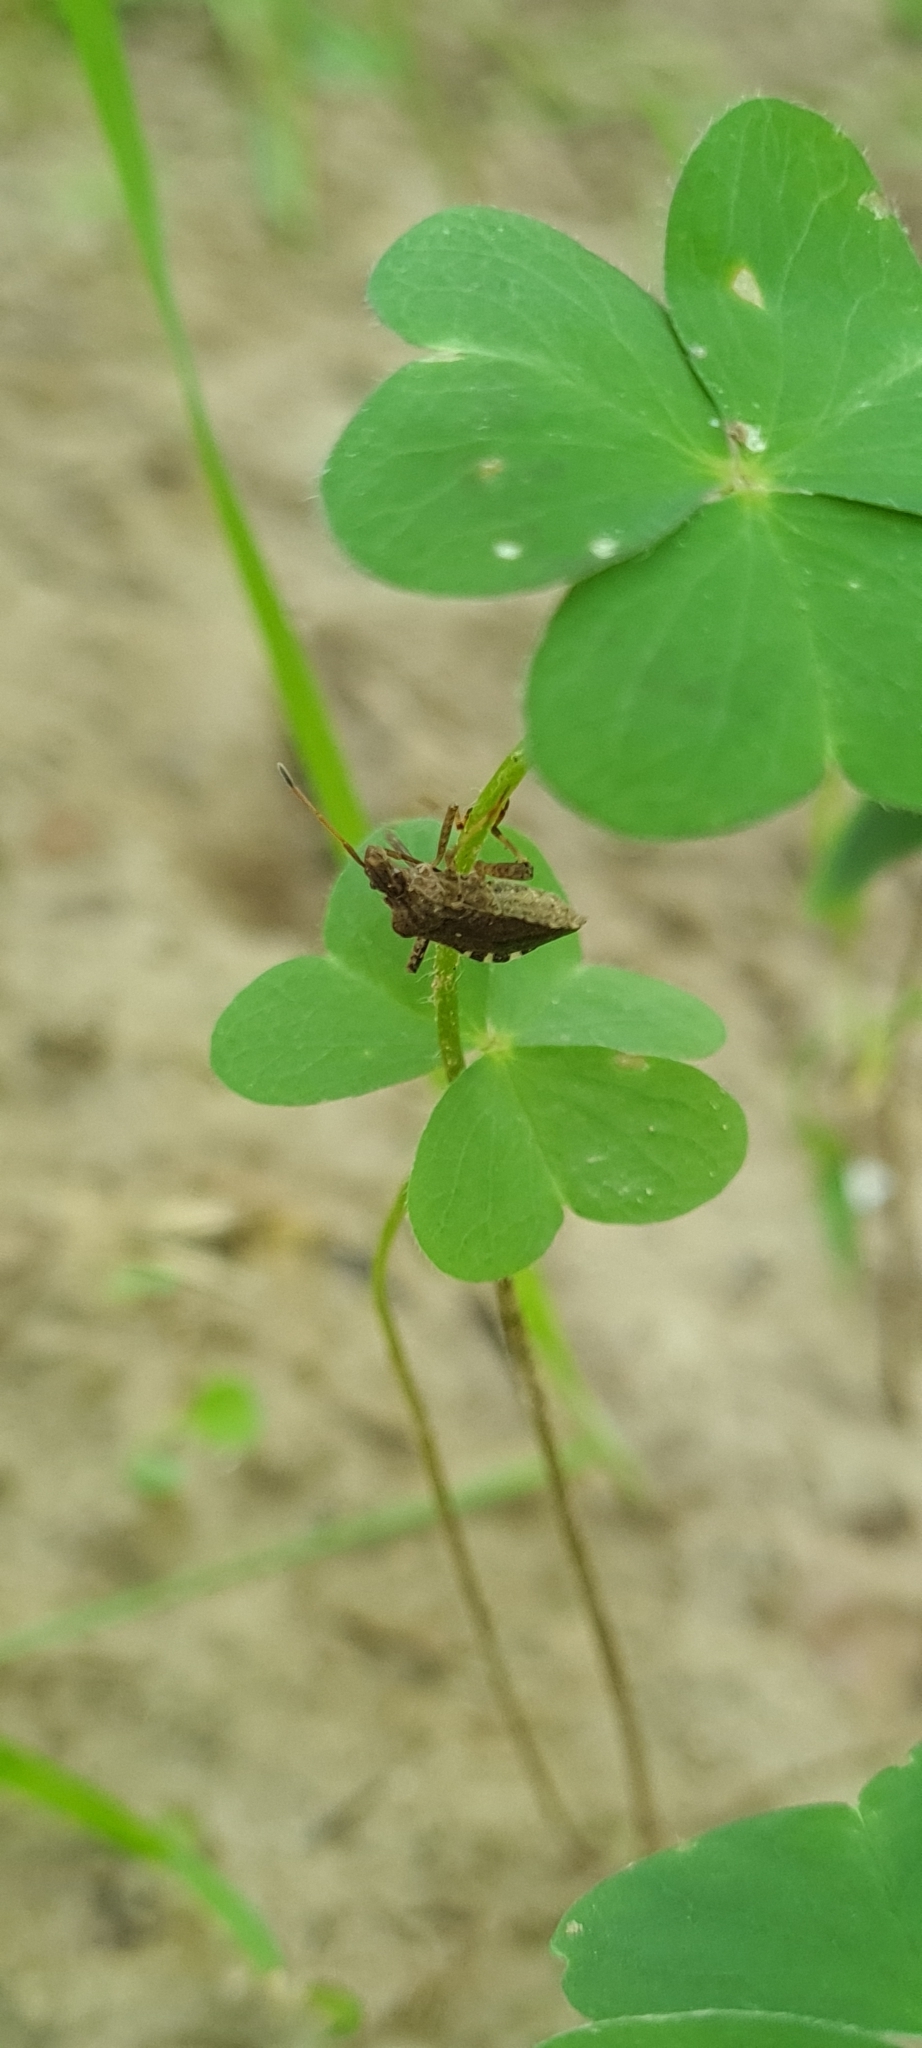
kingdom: Animalia
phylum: Arthropoda
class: Insecta
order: Hemiptera
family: Coreidae
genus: Ceraleptus
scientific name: Ceraleptus gracilicornis
